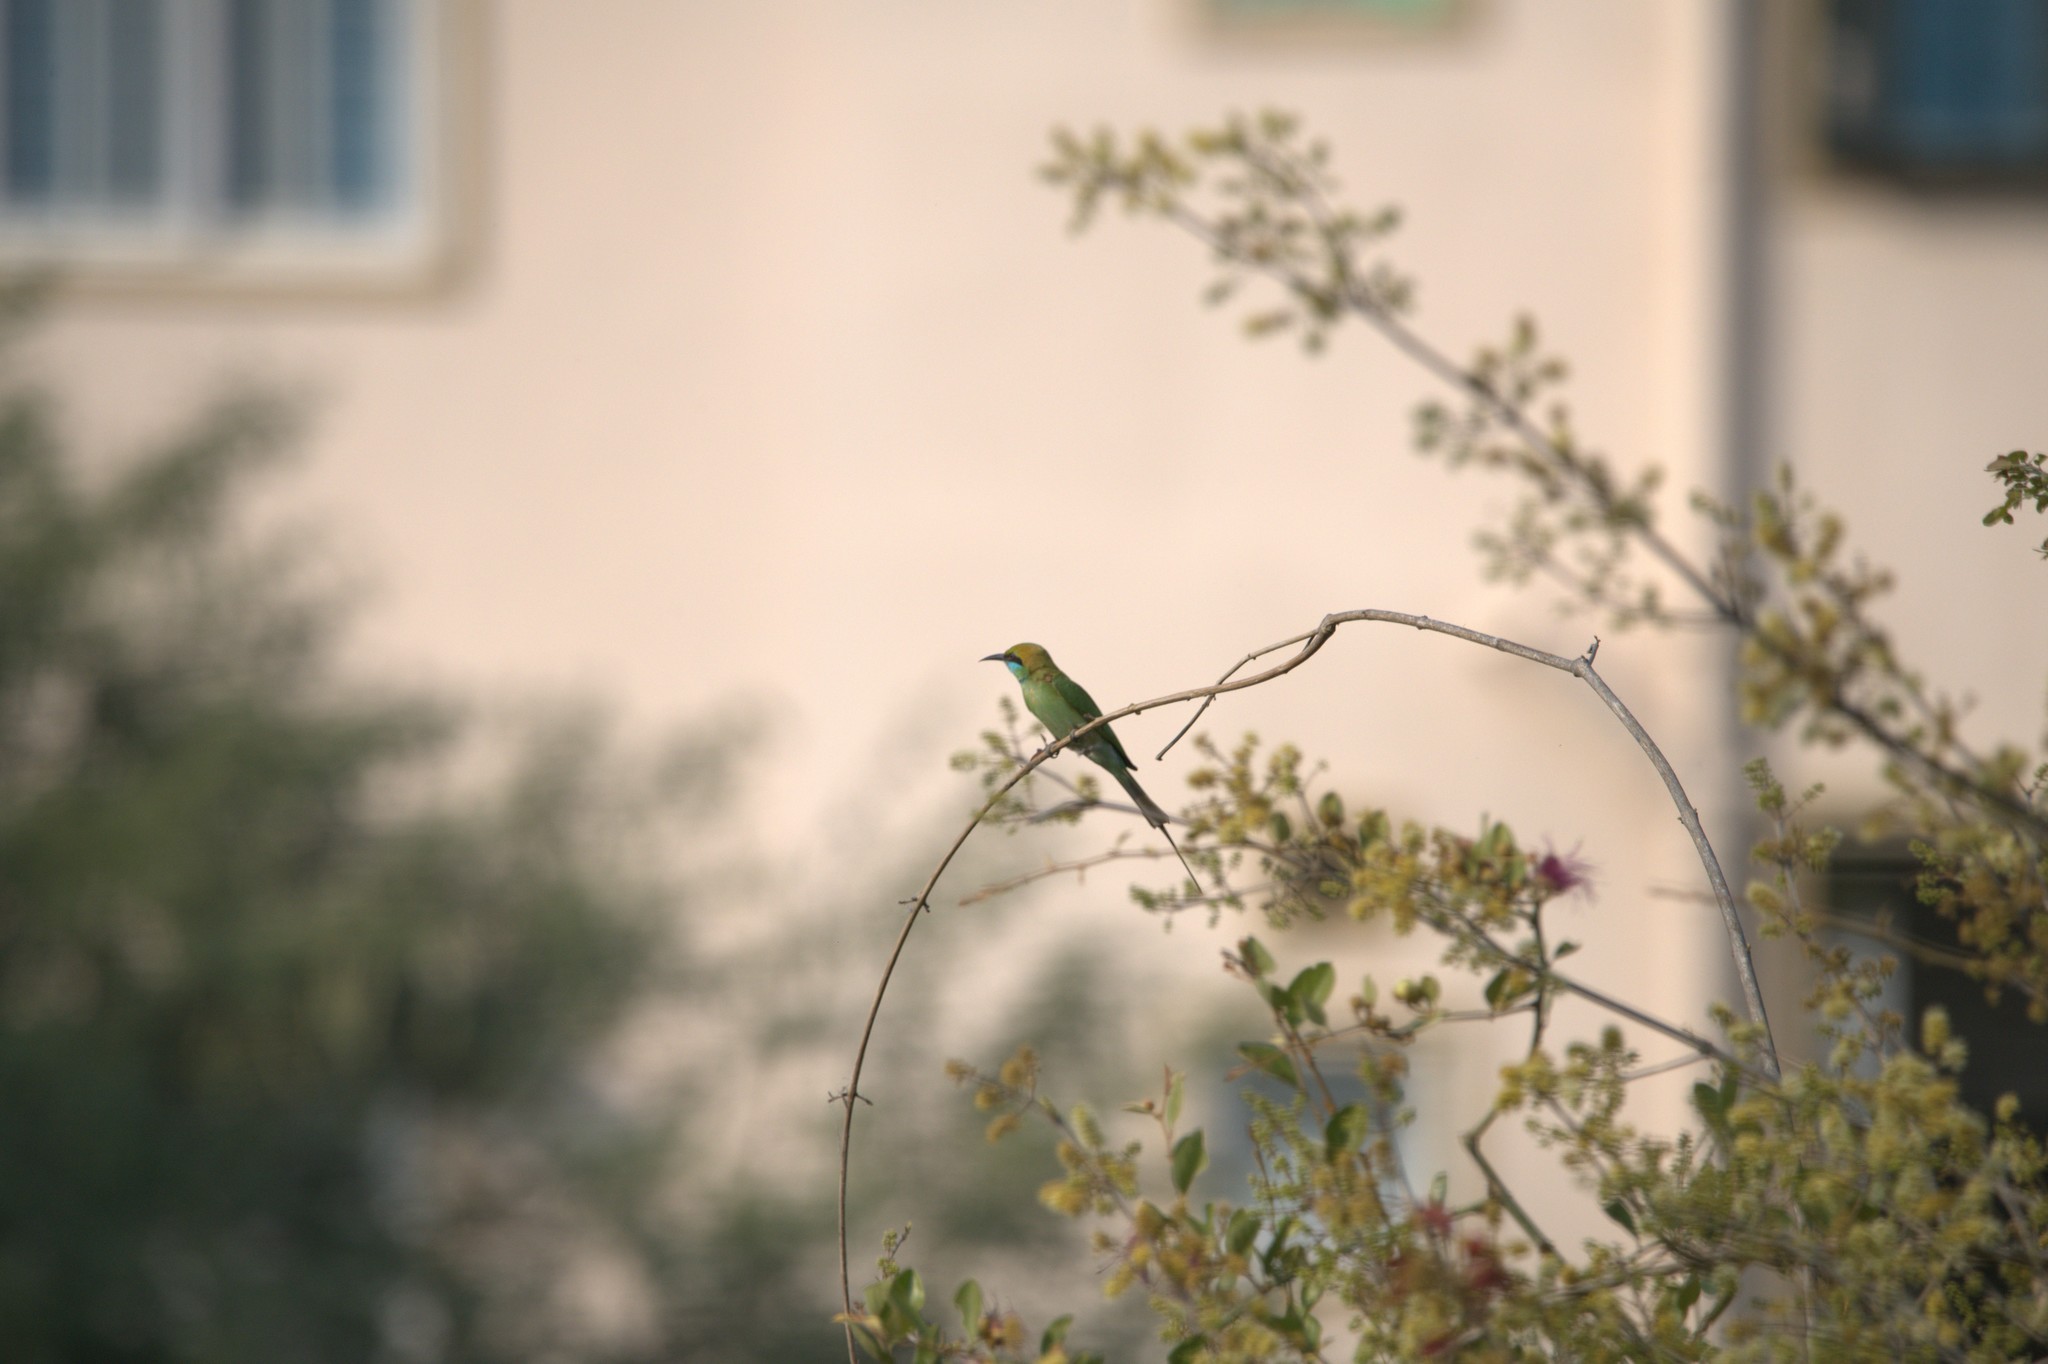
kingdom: Animalia
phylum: Chordata
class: Aves
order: Coraciiformes
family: Meropidae
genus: Merops
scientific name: Merops orientalis
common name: Green bee-eater
